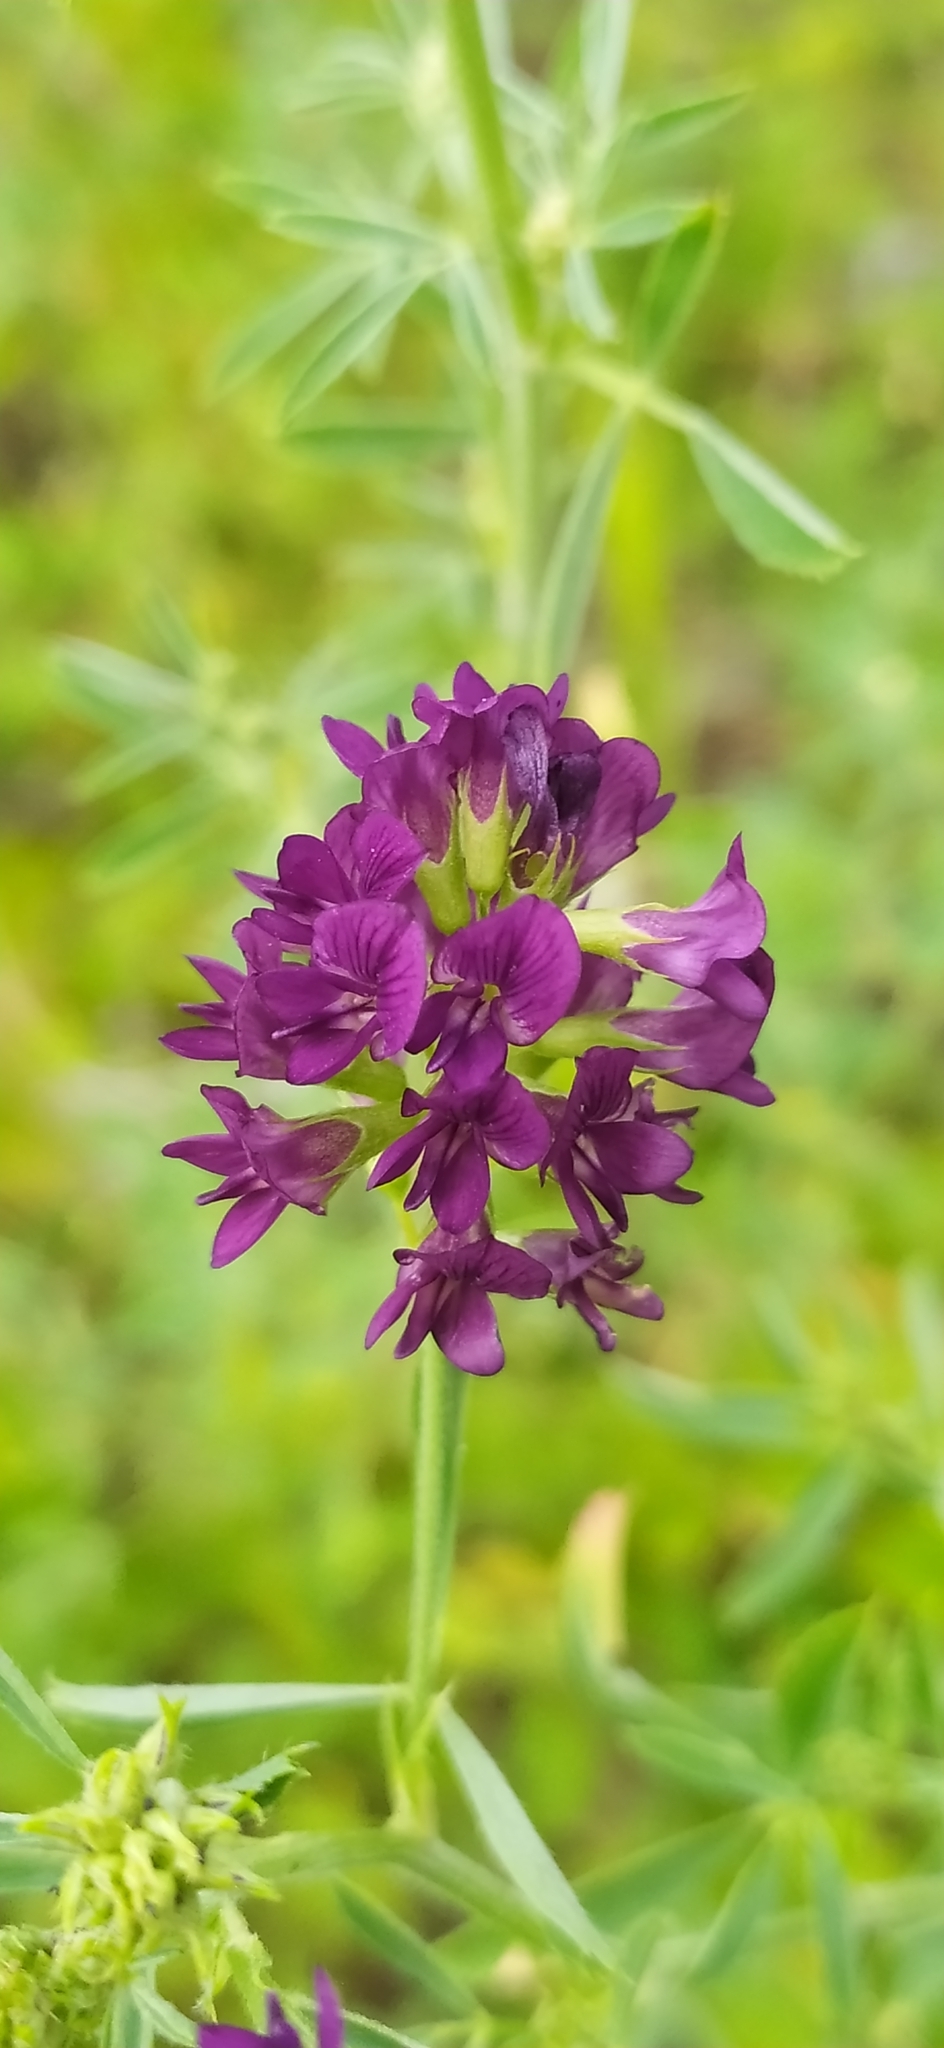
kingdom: Plantae
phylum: Tracheophyta
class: Magnoliopsida
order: Fabales
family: Fabaceae
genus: Medicago
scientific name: Medicago sativa
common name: Alfalfa
